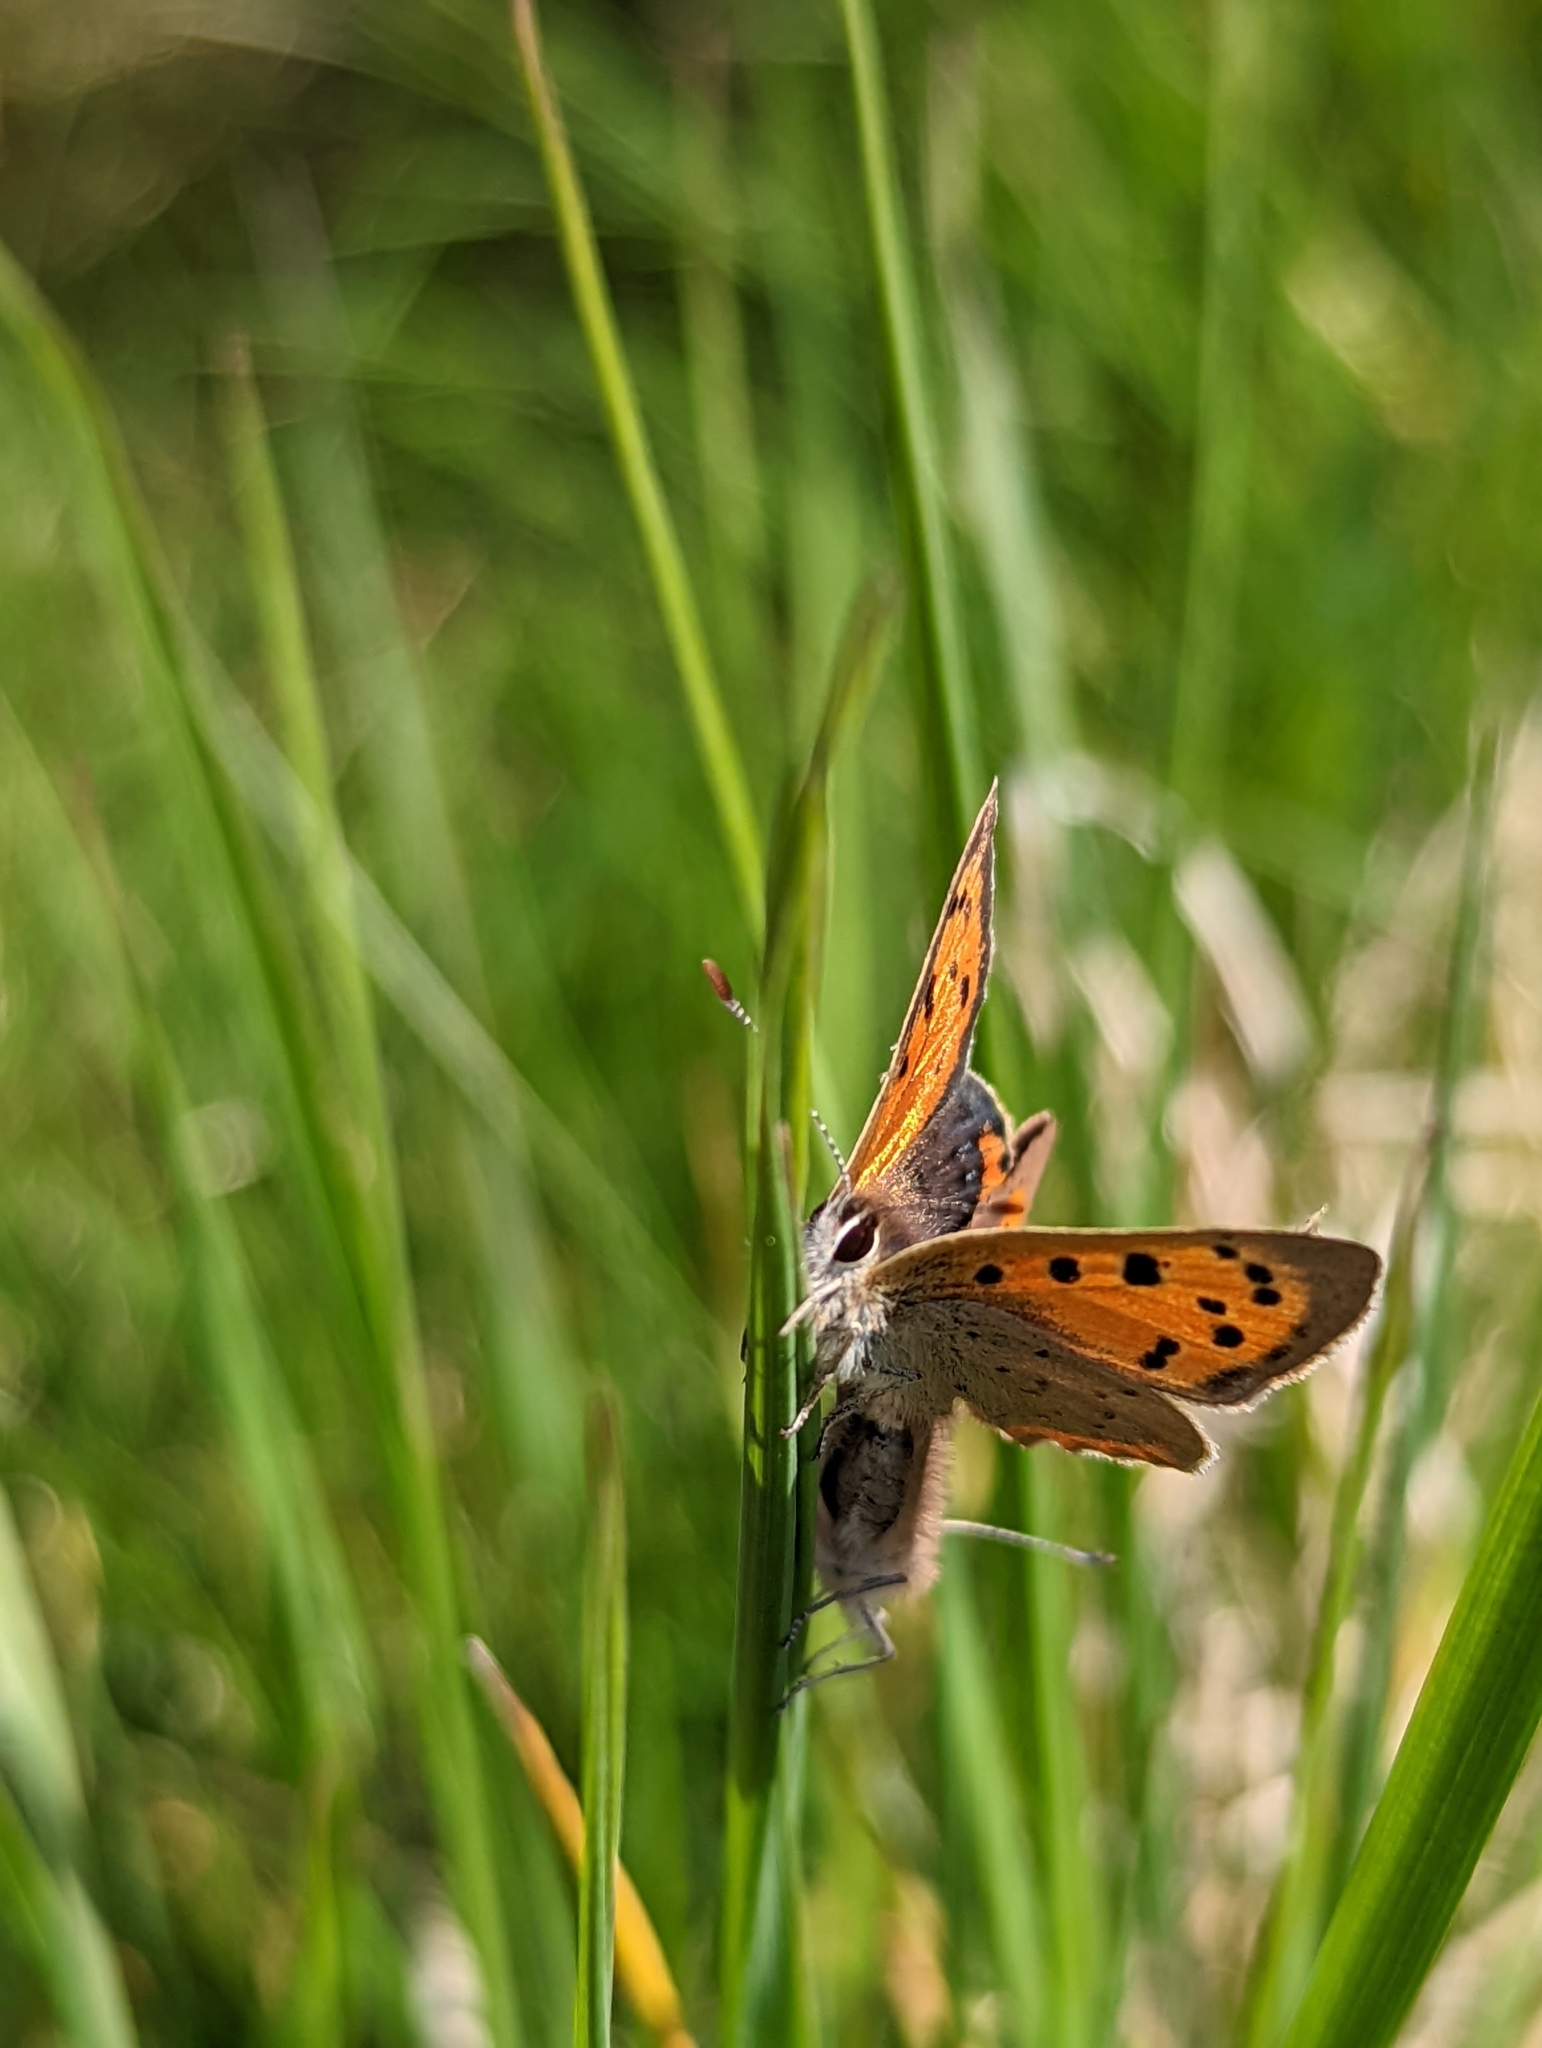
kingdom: Animalia
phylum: Arthropoda
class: Insecta
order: Lepidoptera
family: Lycaenidae
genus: Lycaena
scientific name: Lycaena phlaeas
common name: Small copper
